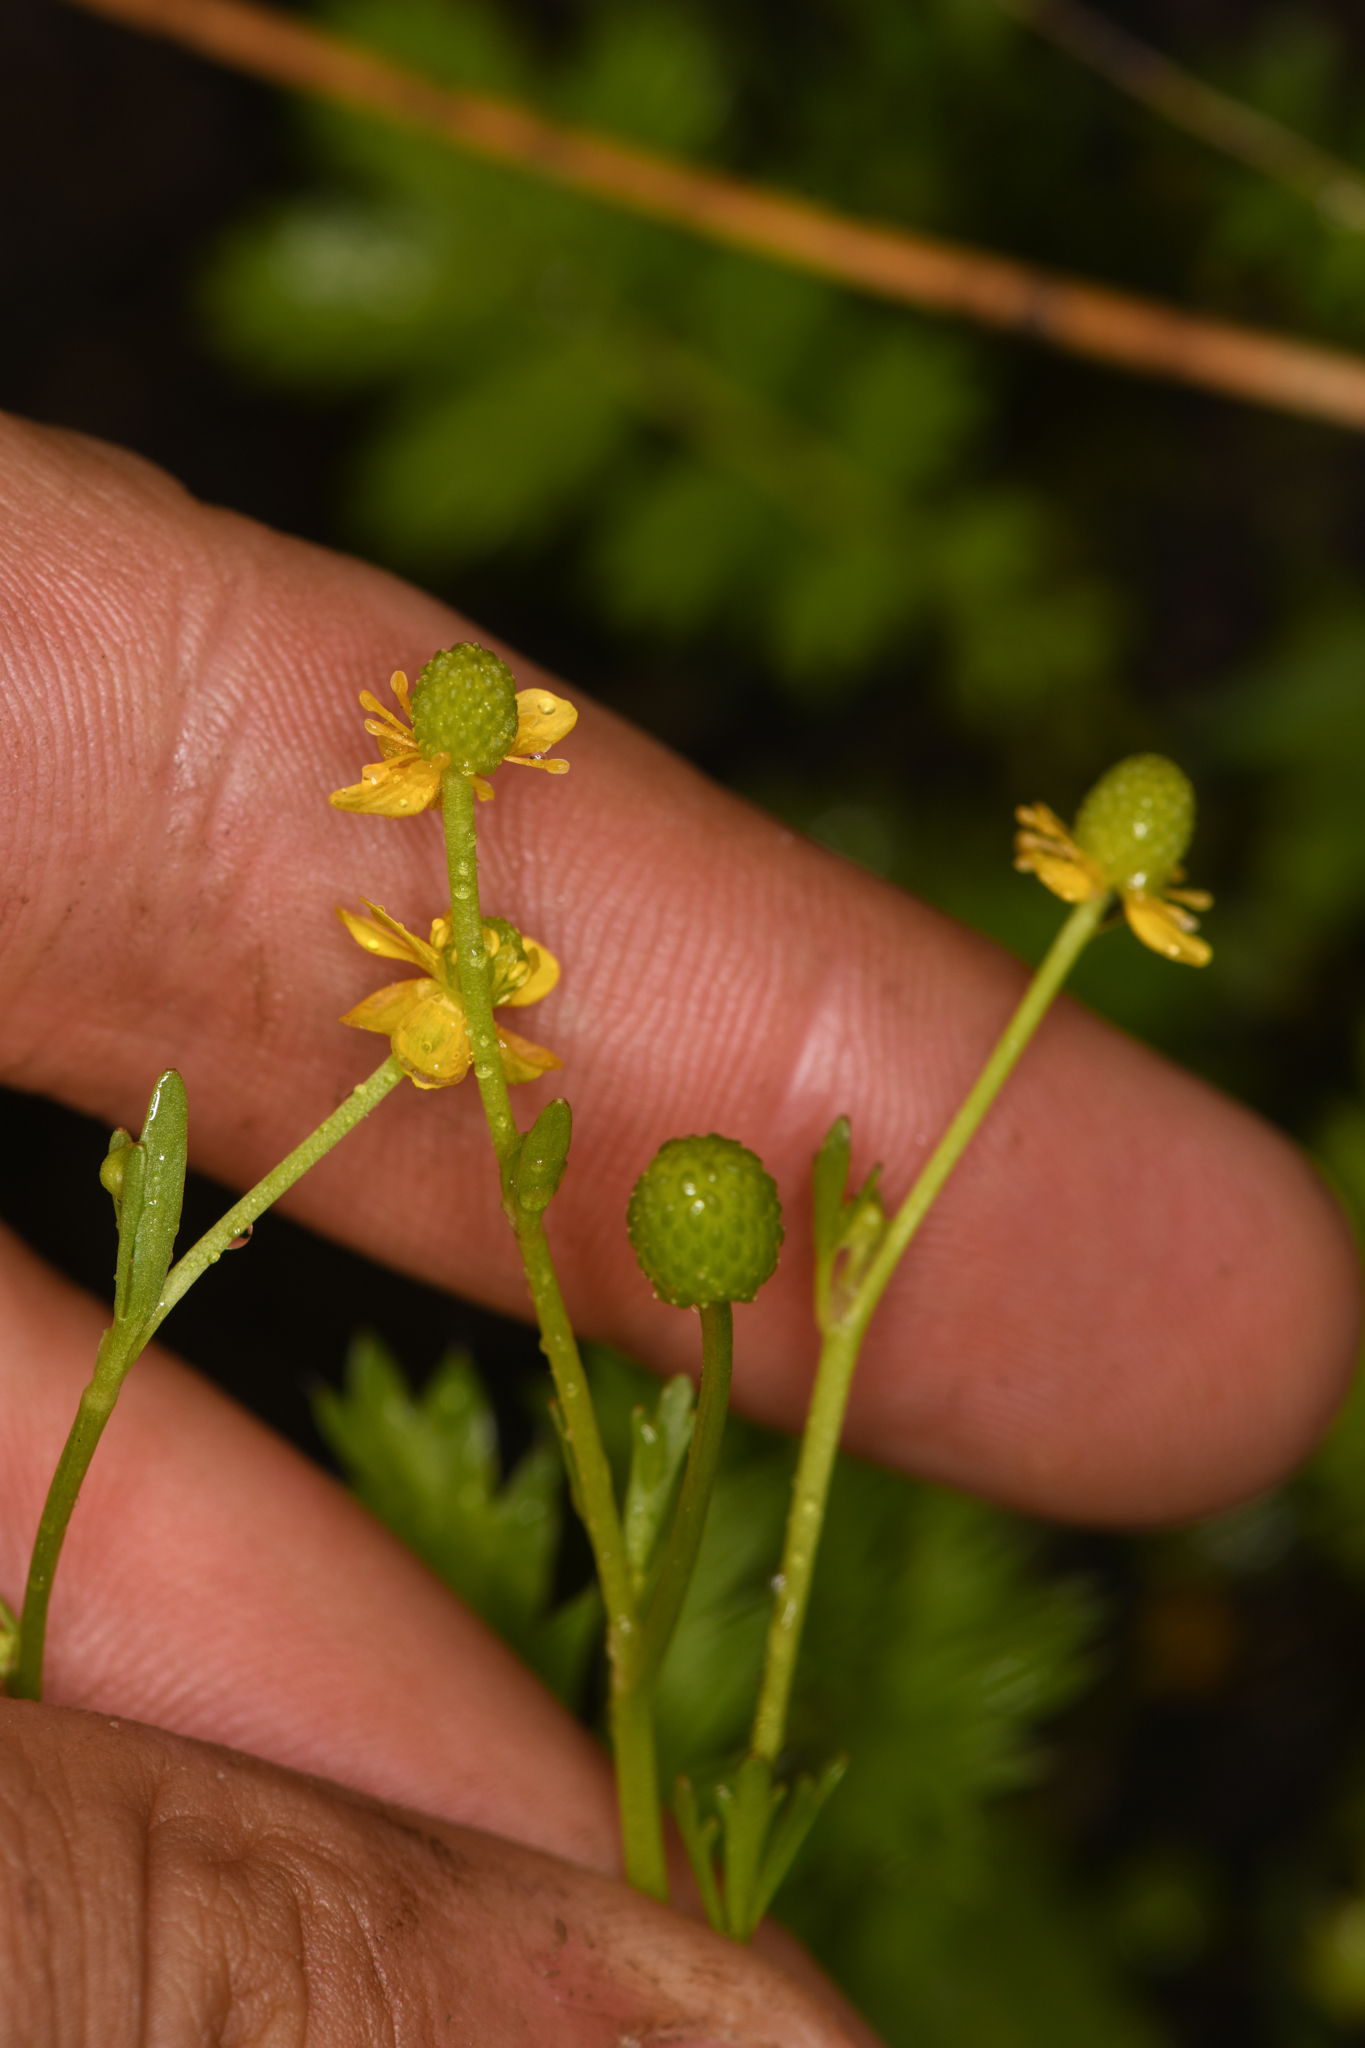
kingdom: Plantae
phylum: Tracheophyta
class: Magnoliopsida
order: Ranunculales
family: Ranunculaceae
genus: Ranunculus
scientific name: Ranunculus sceleratus
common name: Celery-leaved buttercup
